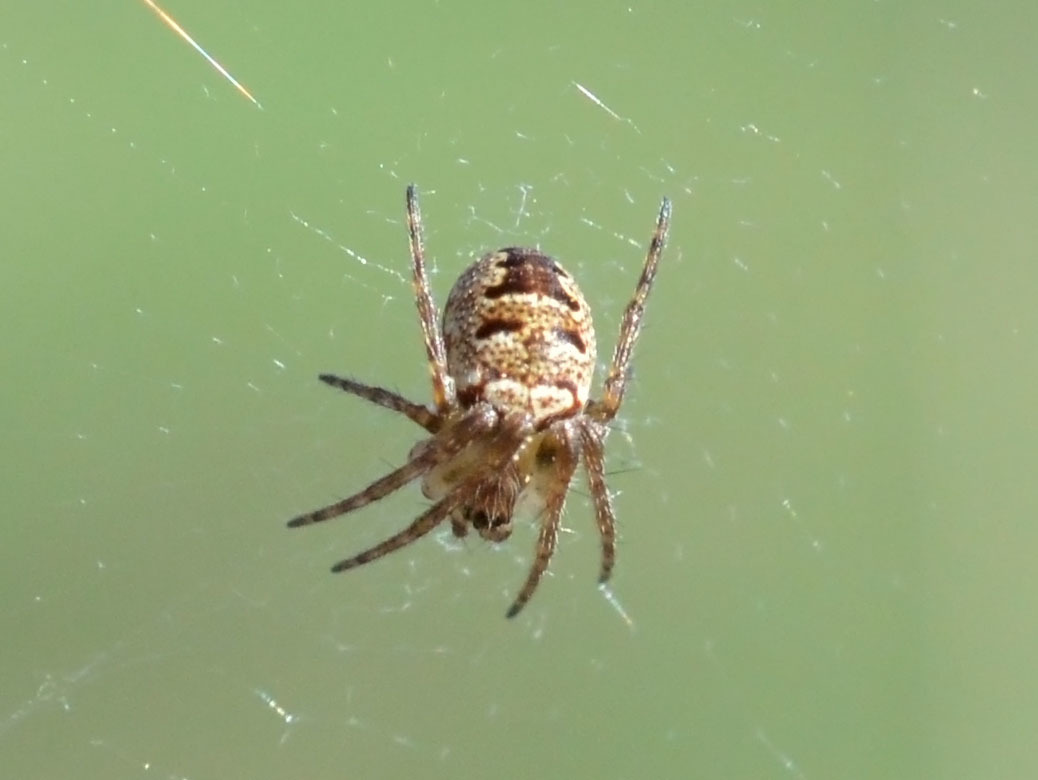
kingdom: Animalia
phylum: Arthropoda
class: Arachnida
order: Araneae
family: Araneidae
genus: Zilla
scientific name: Zilla diodia
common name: Zilla diodia
